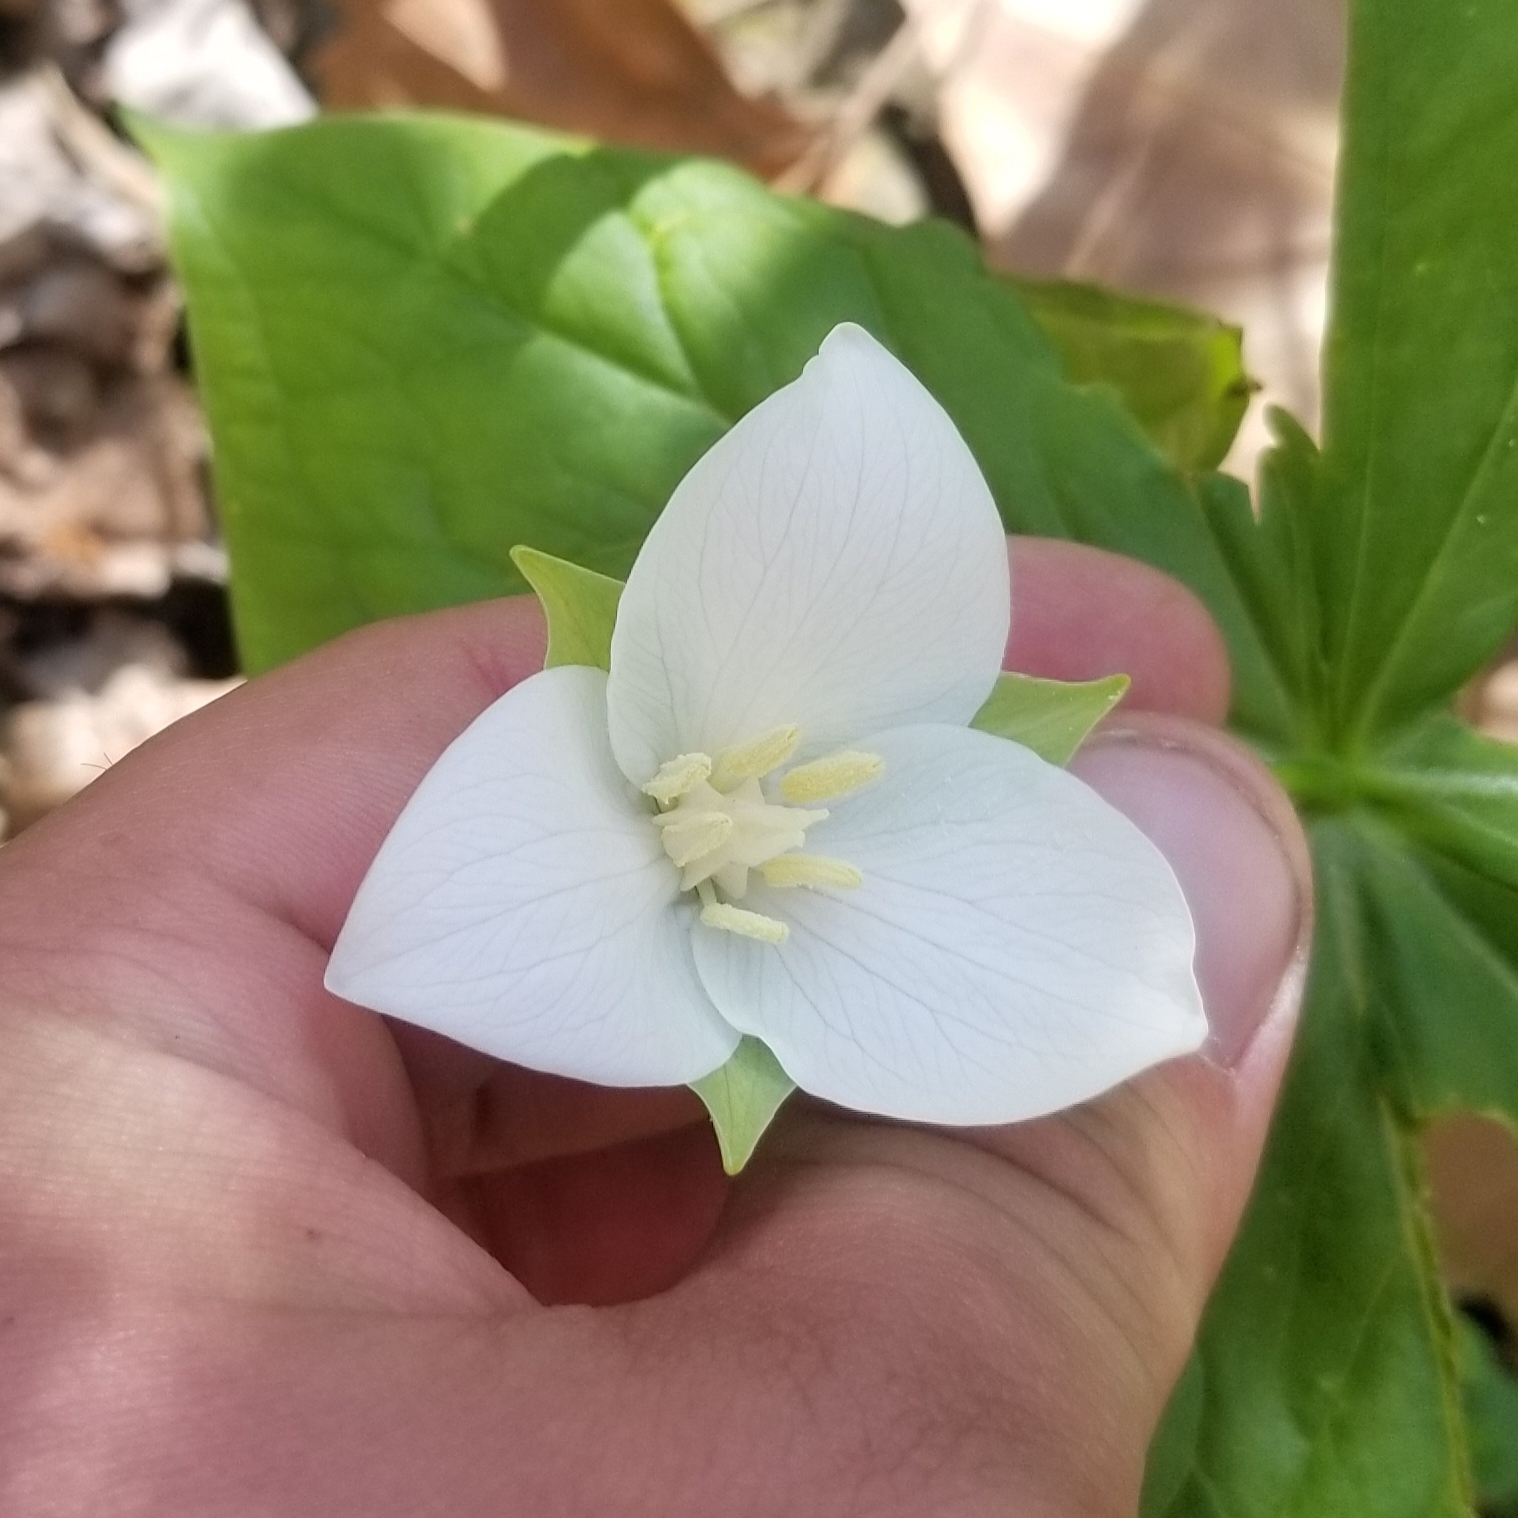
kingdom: Plantae
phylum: Tracheophyta
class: Liliopsida
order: Liliales
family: Melanthiaceae
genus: Trillium
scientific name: Trillium flexipes
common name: Drooping trillium
